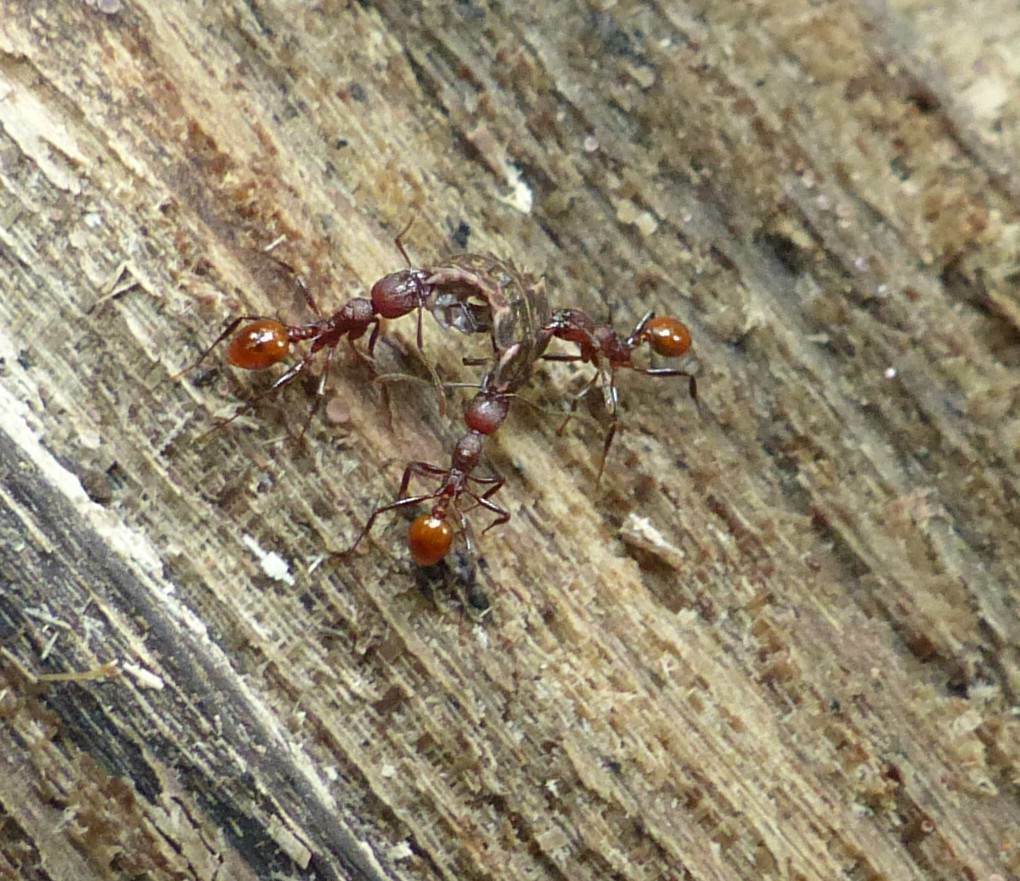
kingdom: Animalia
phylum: Arthropoda
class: Insecta
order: Hymenoptera
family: Formicidae
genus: Aphaenogaster
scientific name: Aphaenogaster tennesseensis
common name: Tennessee thread-waisted ant
